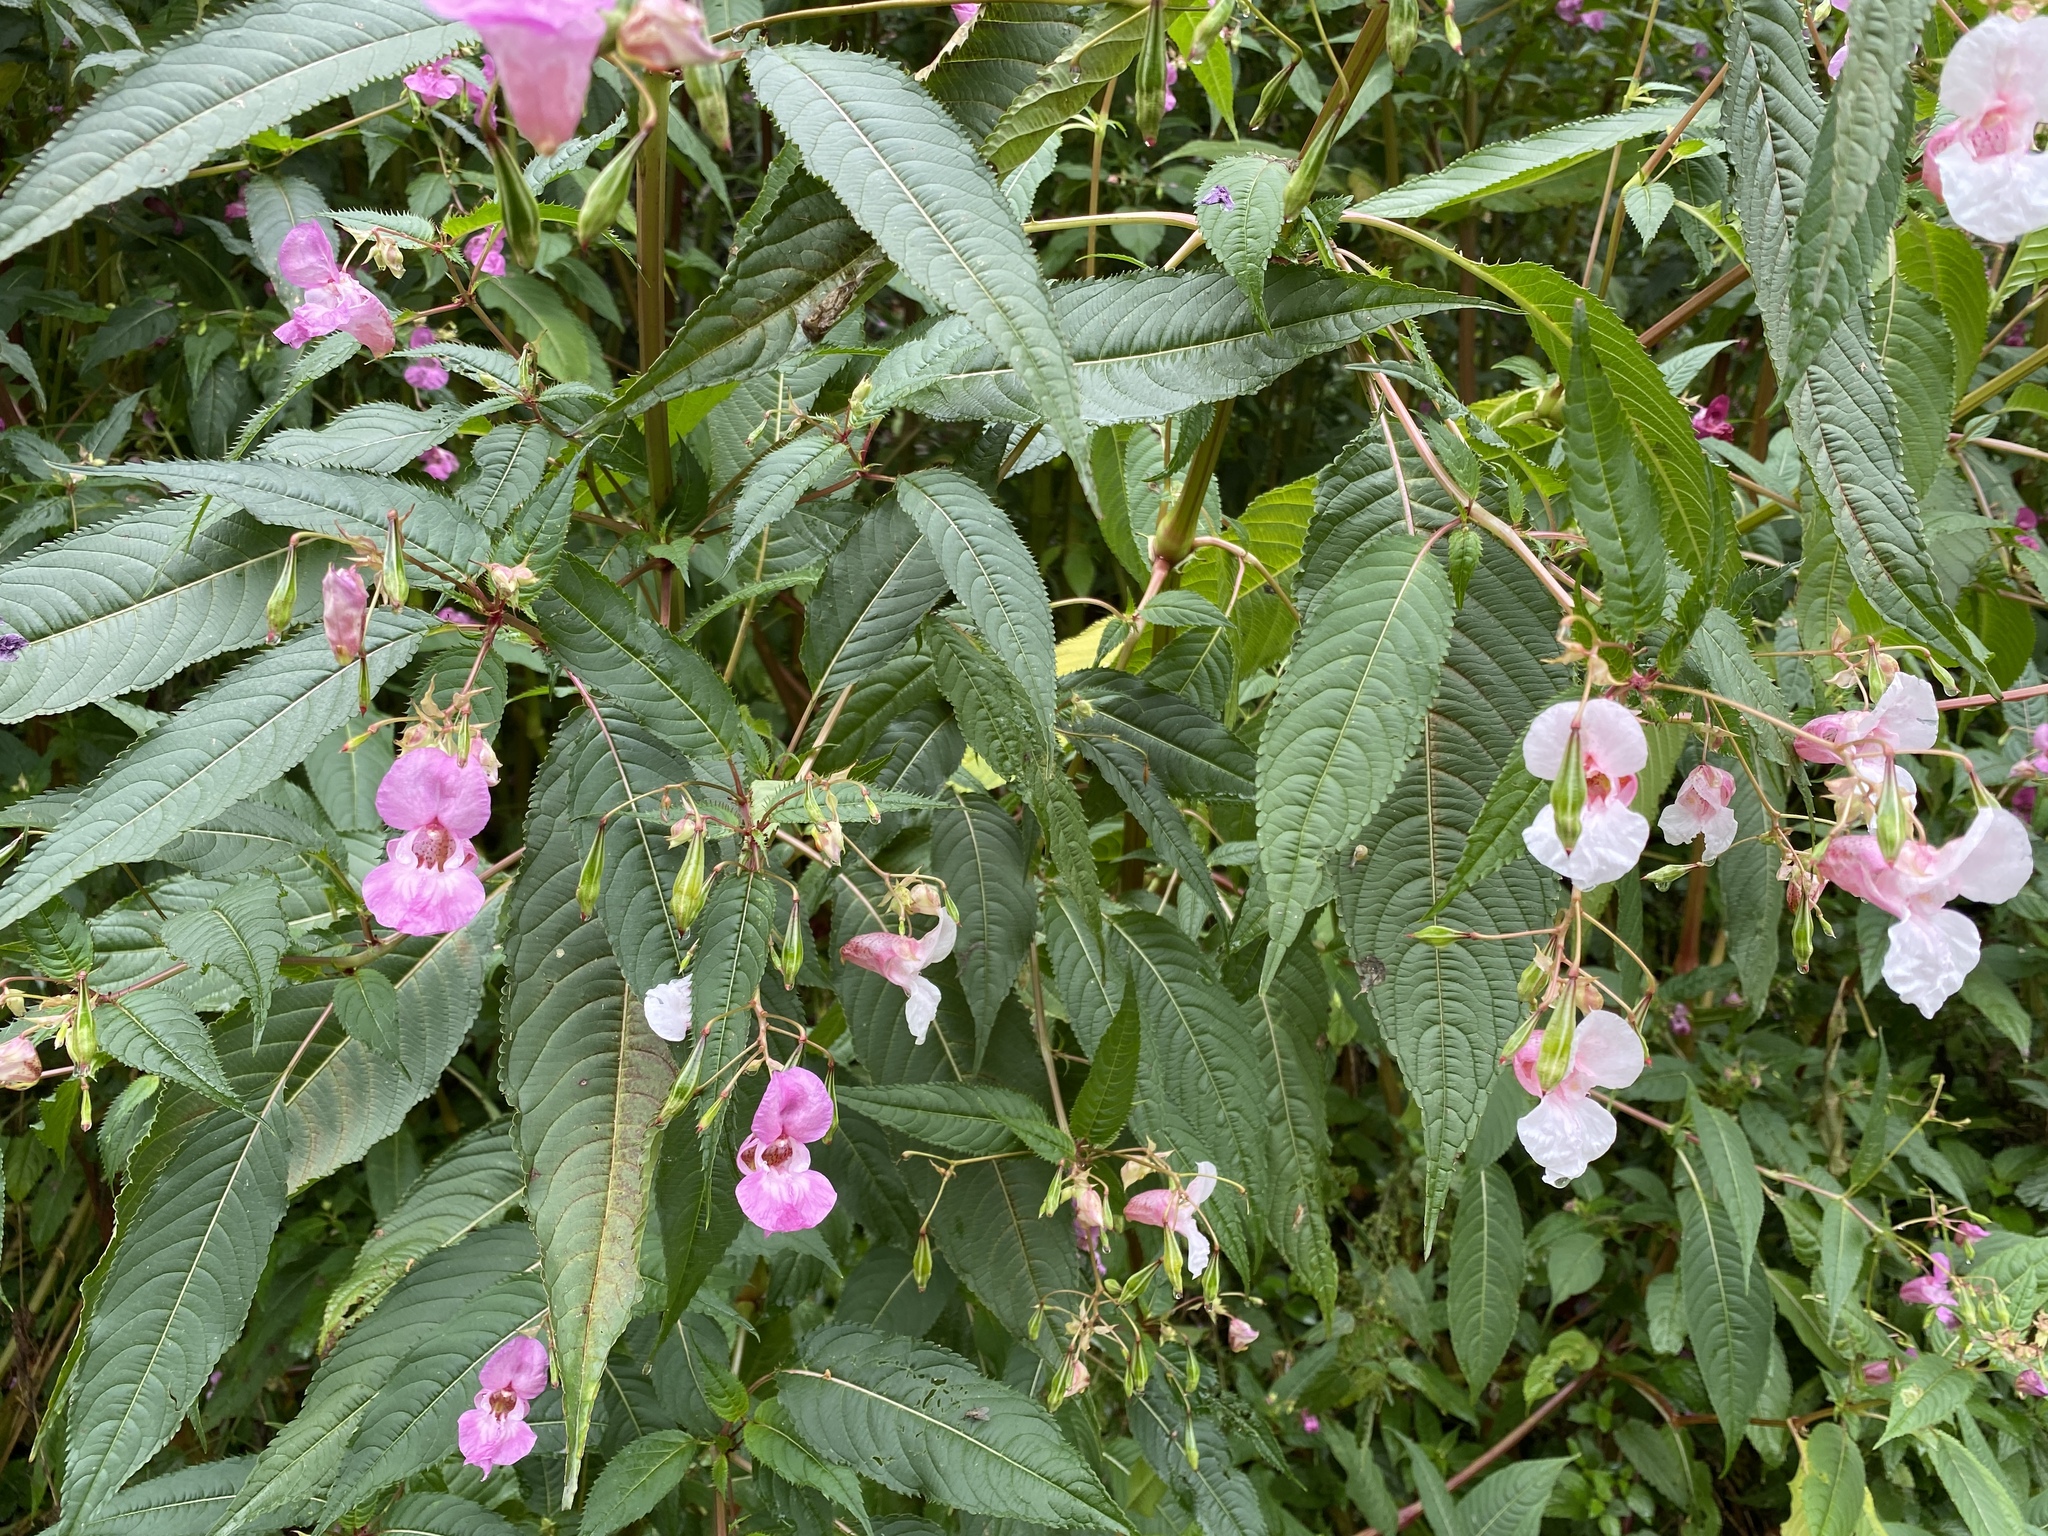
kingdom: Plantae
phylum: Tracheophyta
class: Magnoliopsida
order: Ericales
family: Balsaminaceae
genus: Impatiens
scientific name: Impatiens glandulifera
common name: Himalayan balsam
